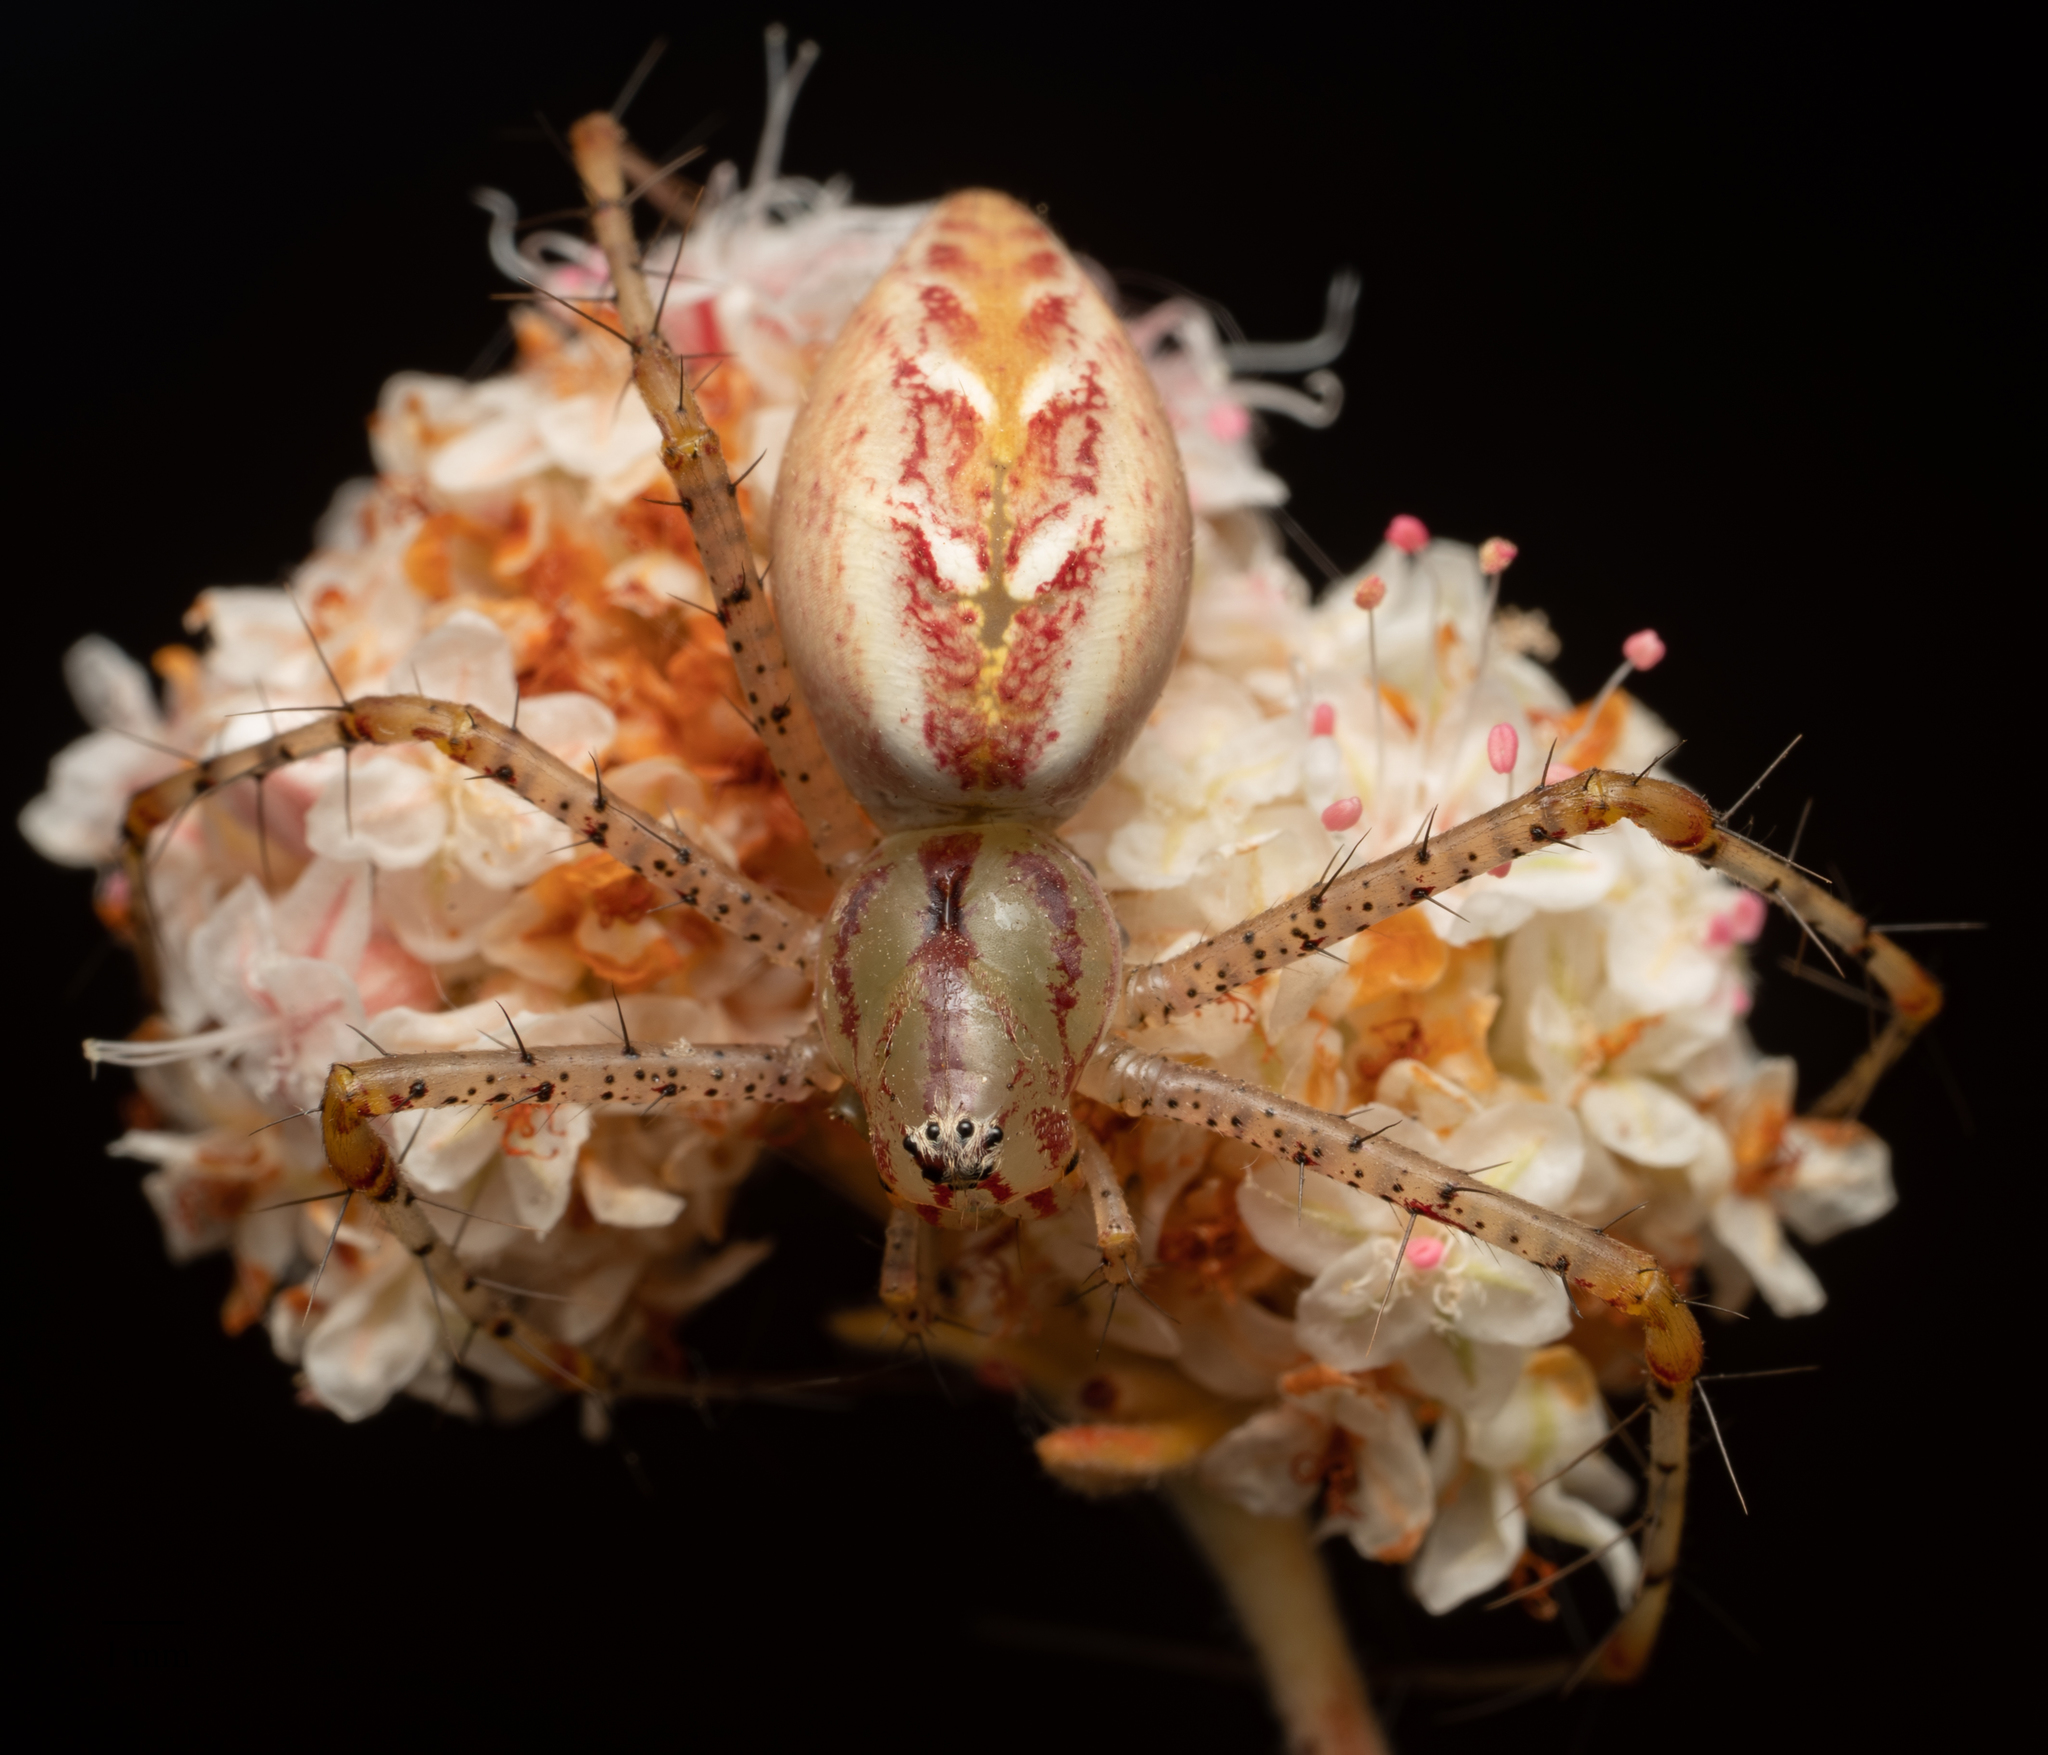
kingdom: Animalia
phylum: Arthropoda
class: Arachnida
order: Araneae
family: Oxyopidae
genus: Peucetia
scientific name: Peucetia viridans
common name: Lynx spiders
